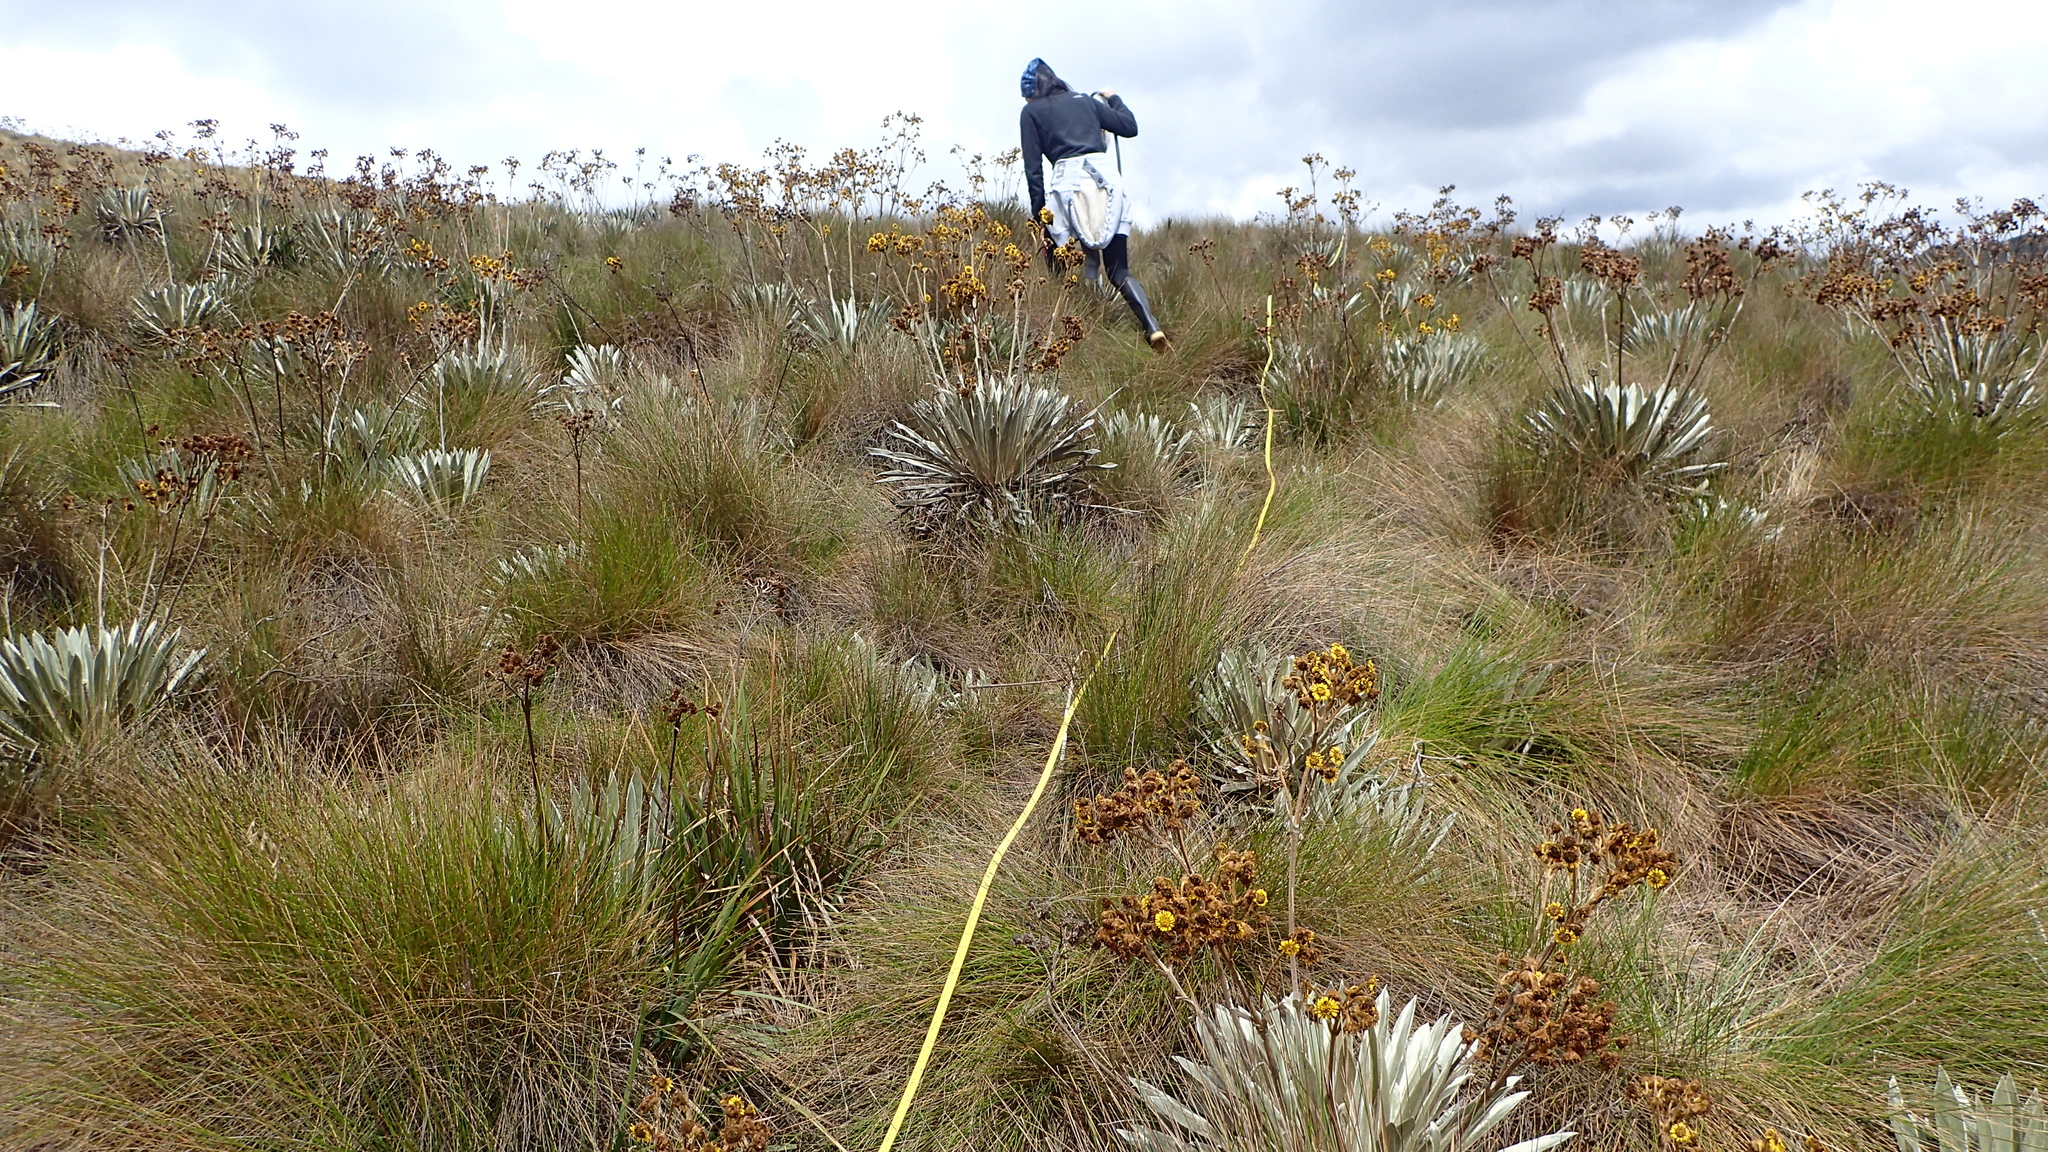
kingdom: Plantae
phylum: Tracheophyta
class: Magnoliopsida
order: Asterales
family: Asteraceae
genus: Espeletia
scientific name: Espeletia boyacensis
